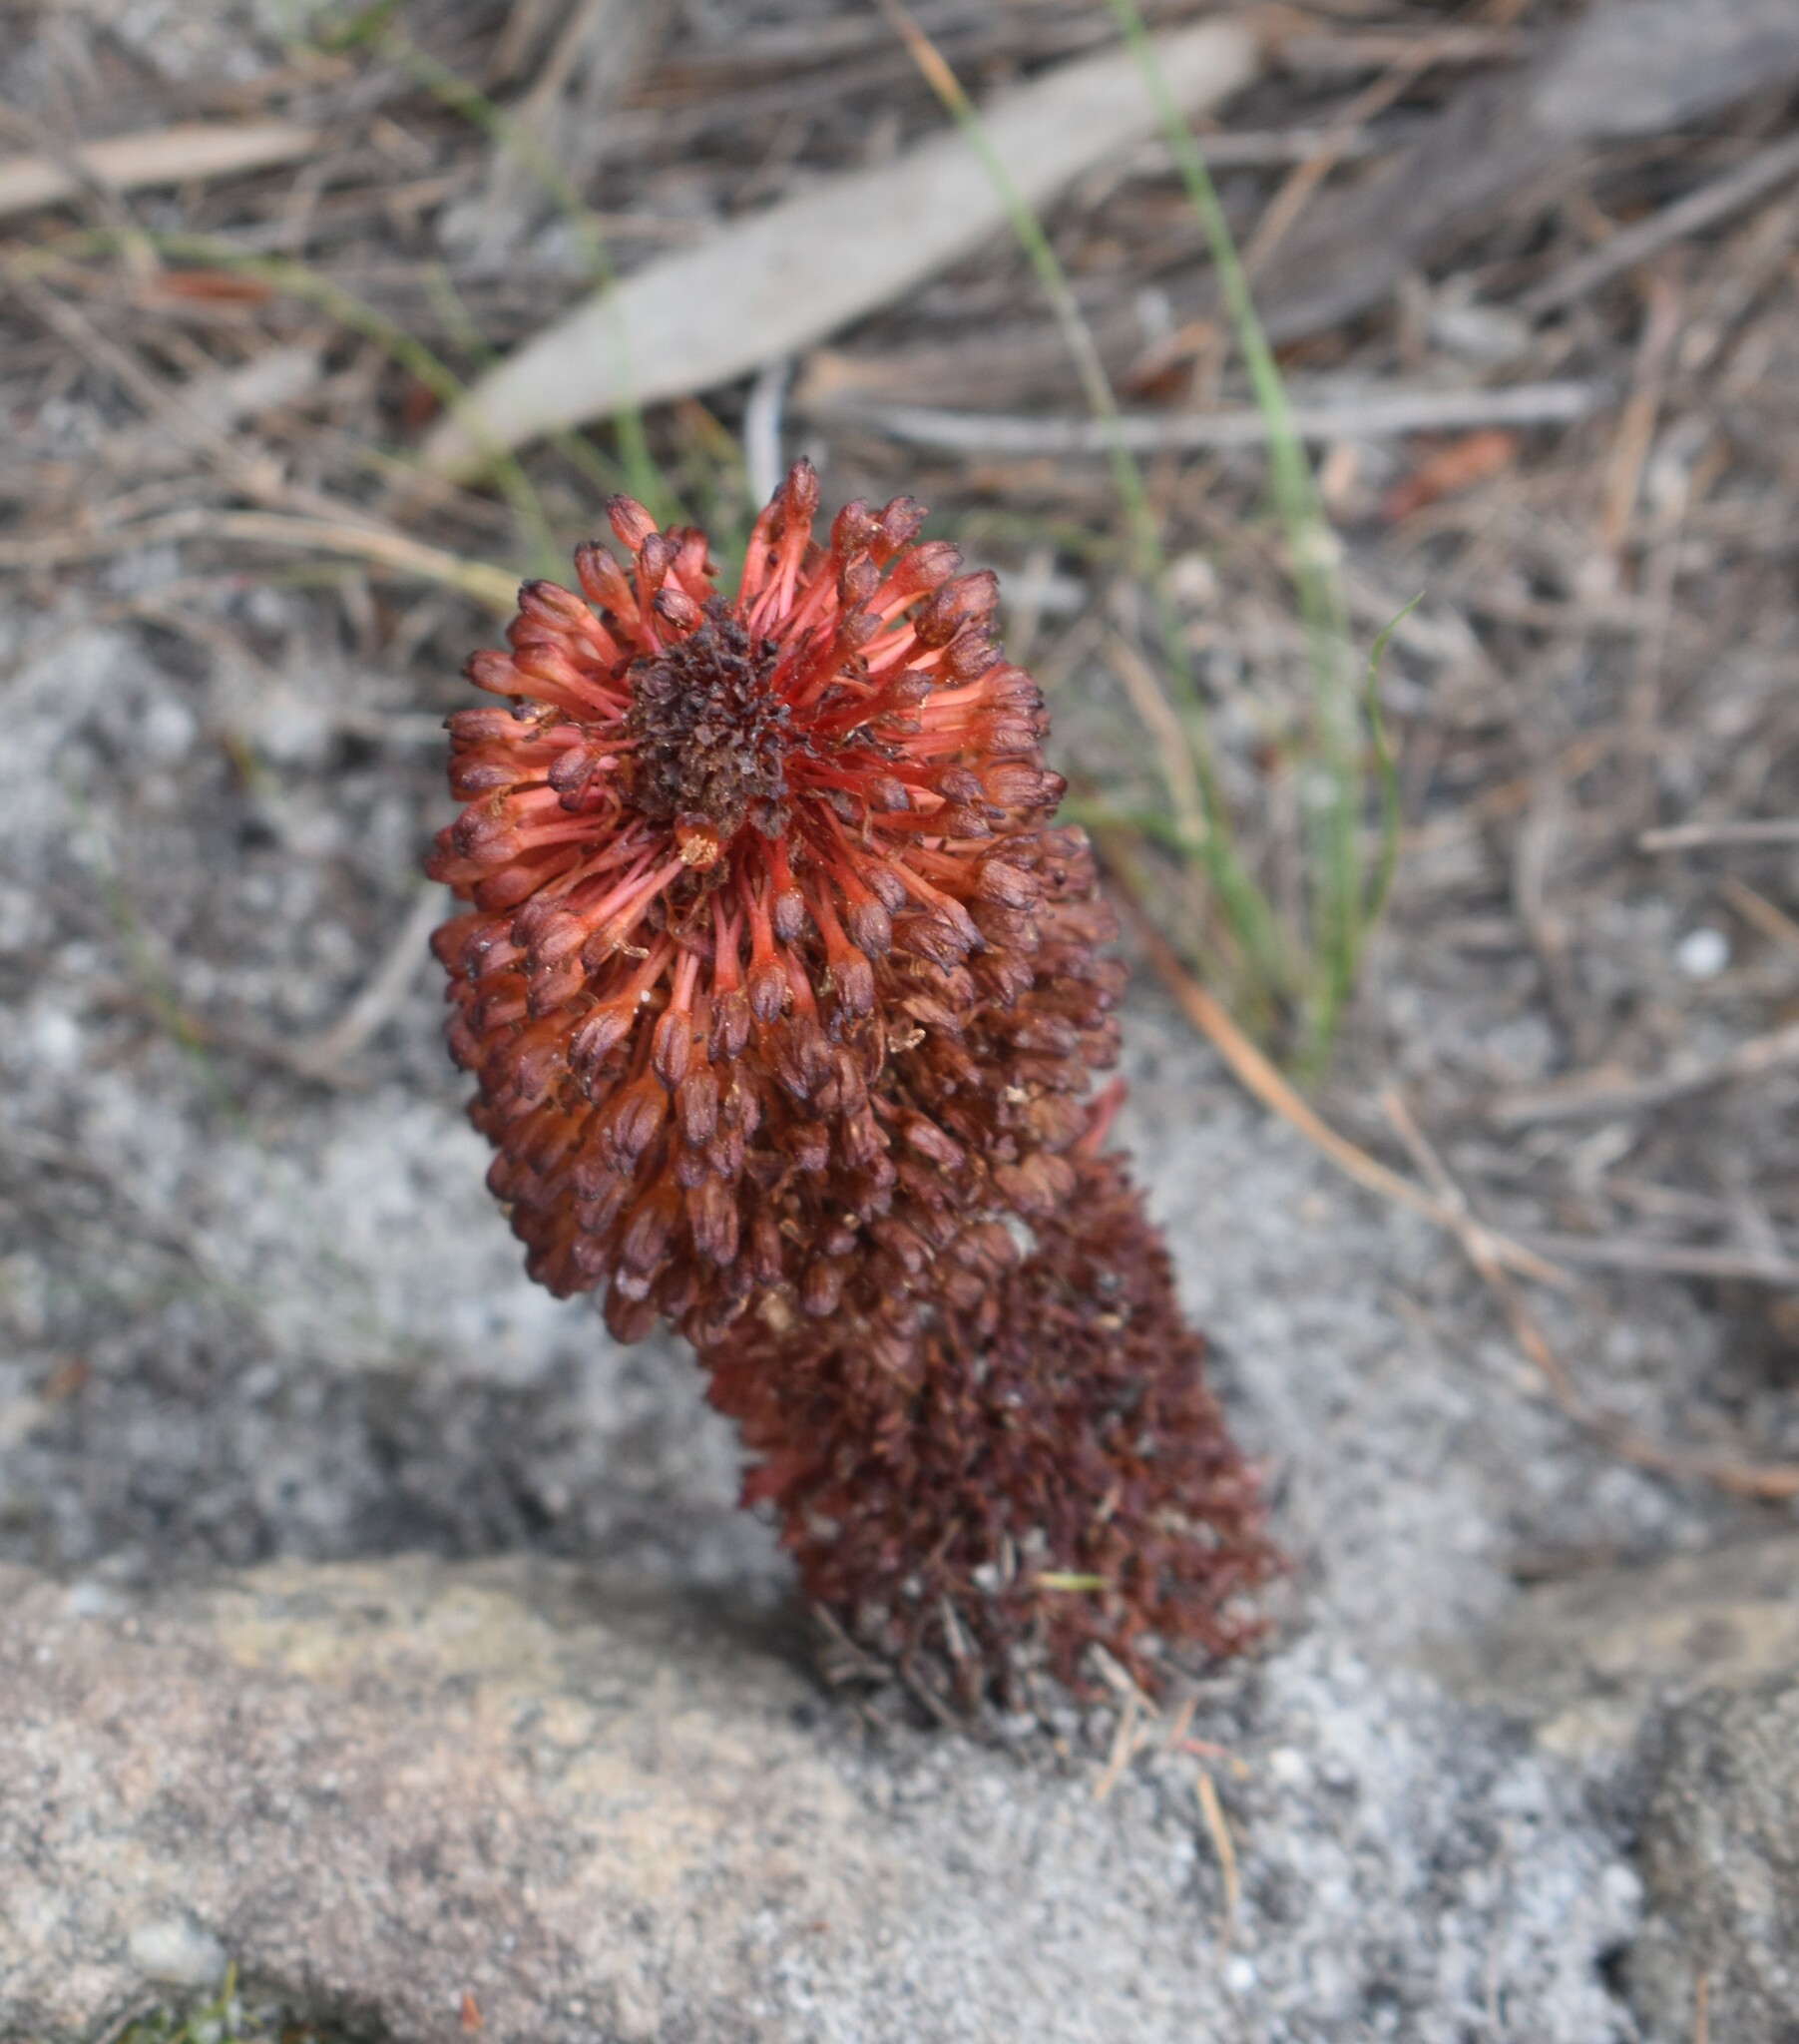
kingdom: Plantae
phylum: Tracheophyta
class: Magnoliopsida
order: Santalales
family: Mystropetalaceae
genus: Mystropetalon
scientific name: Mystropetalon thomii
